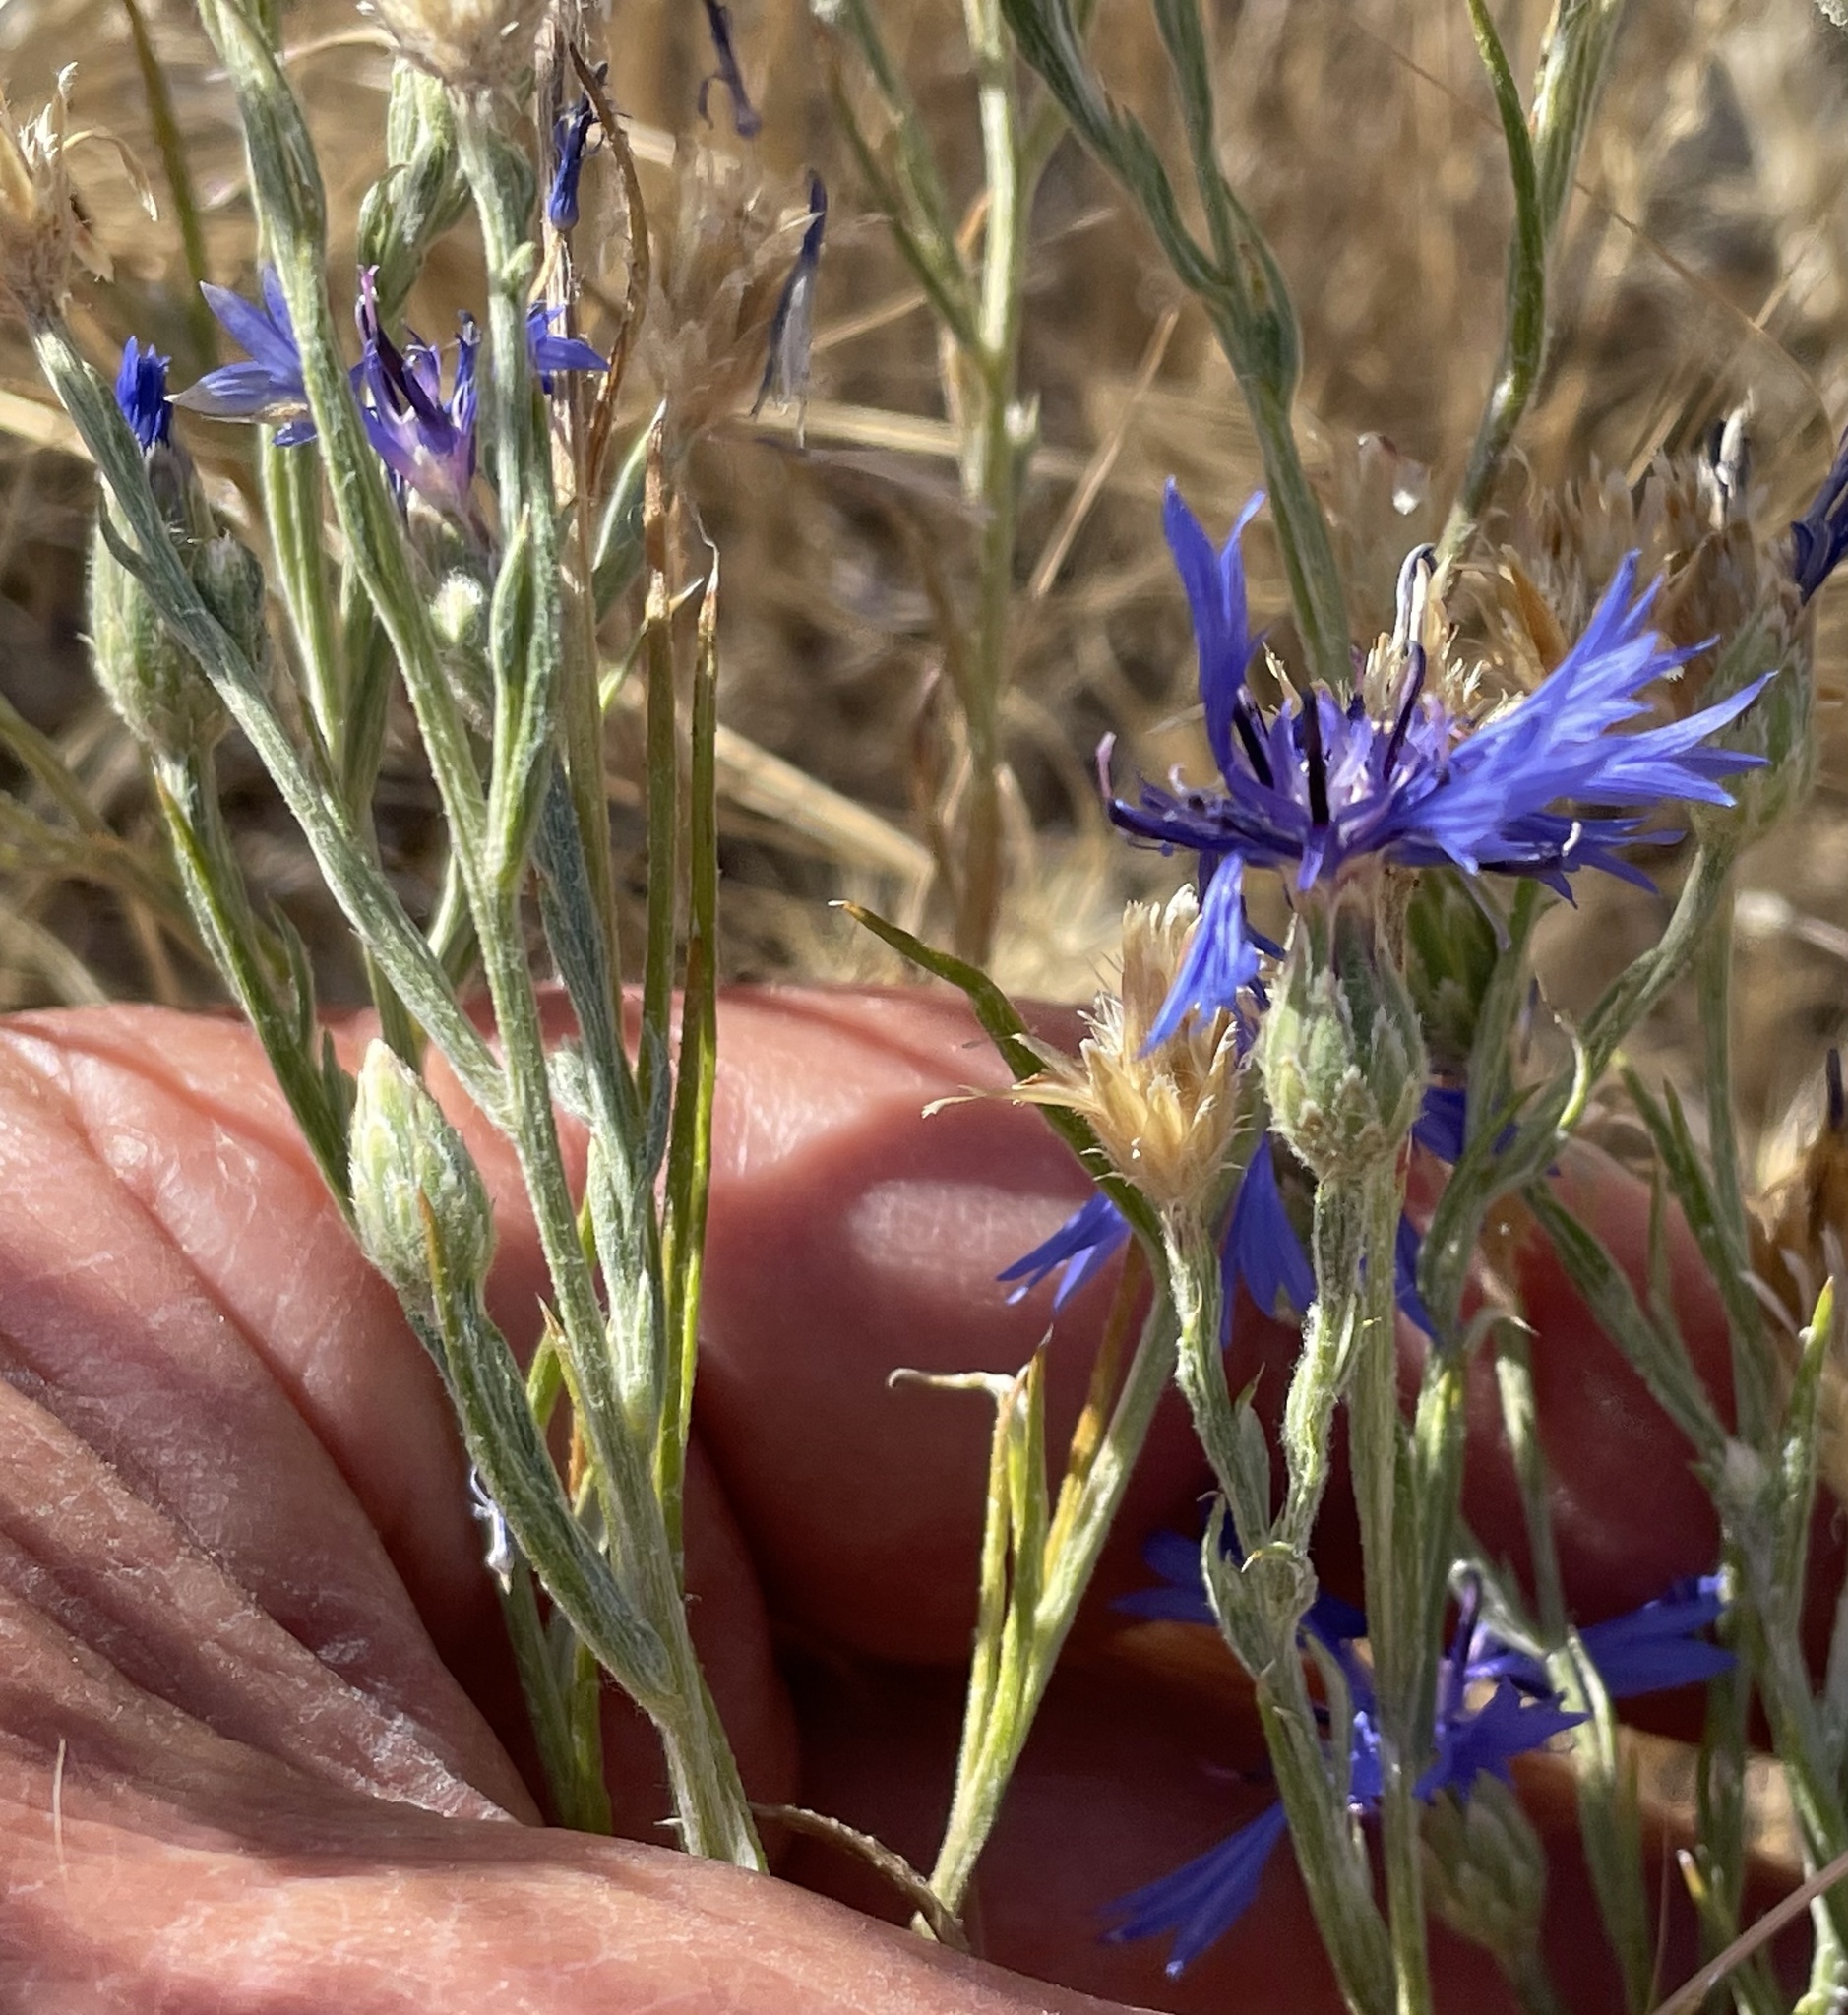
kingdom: Plantae
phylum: Tracheophyta
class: Magnoliopsida
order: Asterales
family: Asteraceae
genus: Centaurea
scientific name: Centaurea cyanus
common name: Cornflower
